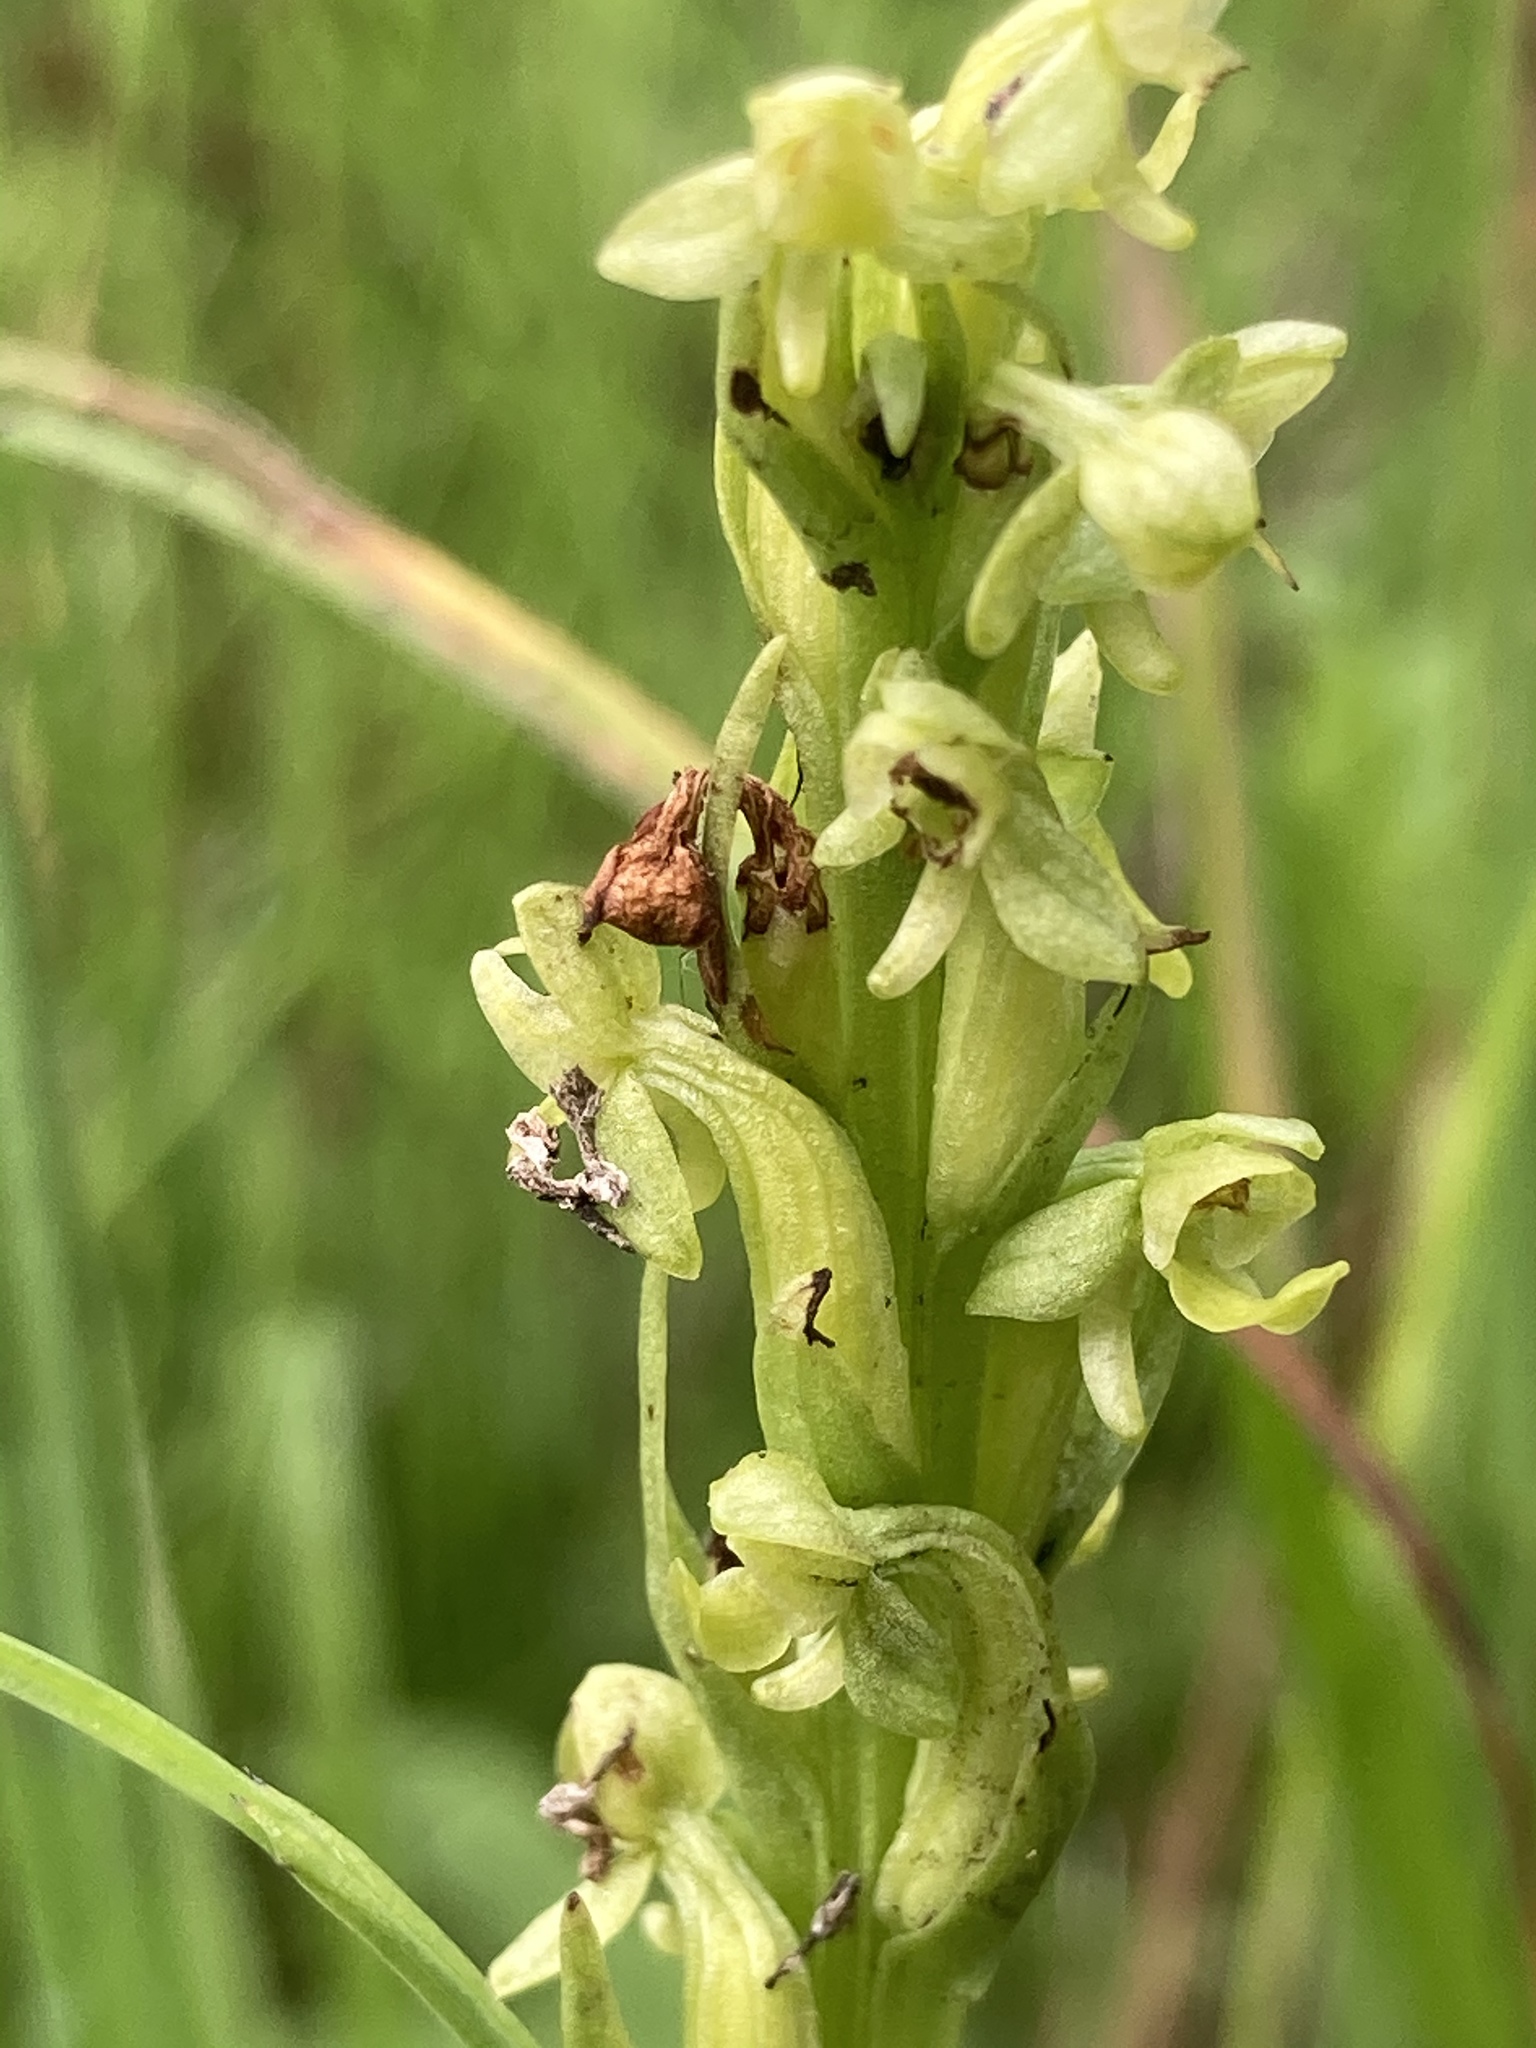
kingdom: Plantae
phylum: Tracheophyta
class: Liliopsida
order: Asparagales
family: Orchidaceae
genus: Platanthera
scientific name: Platanthera aquilonis
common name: Northern green orchid
